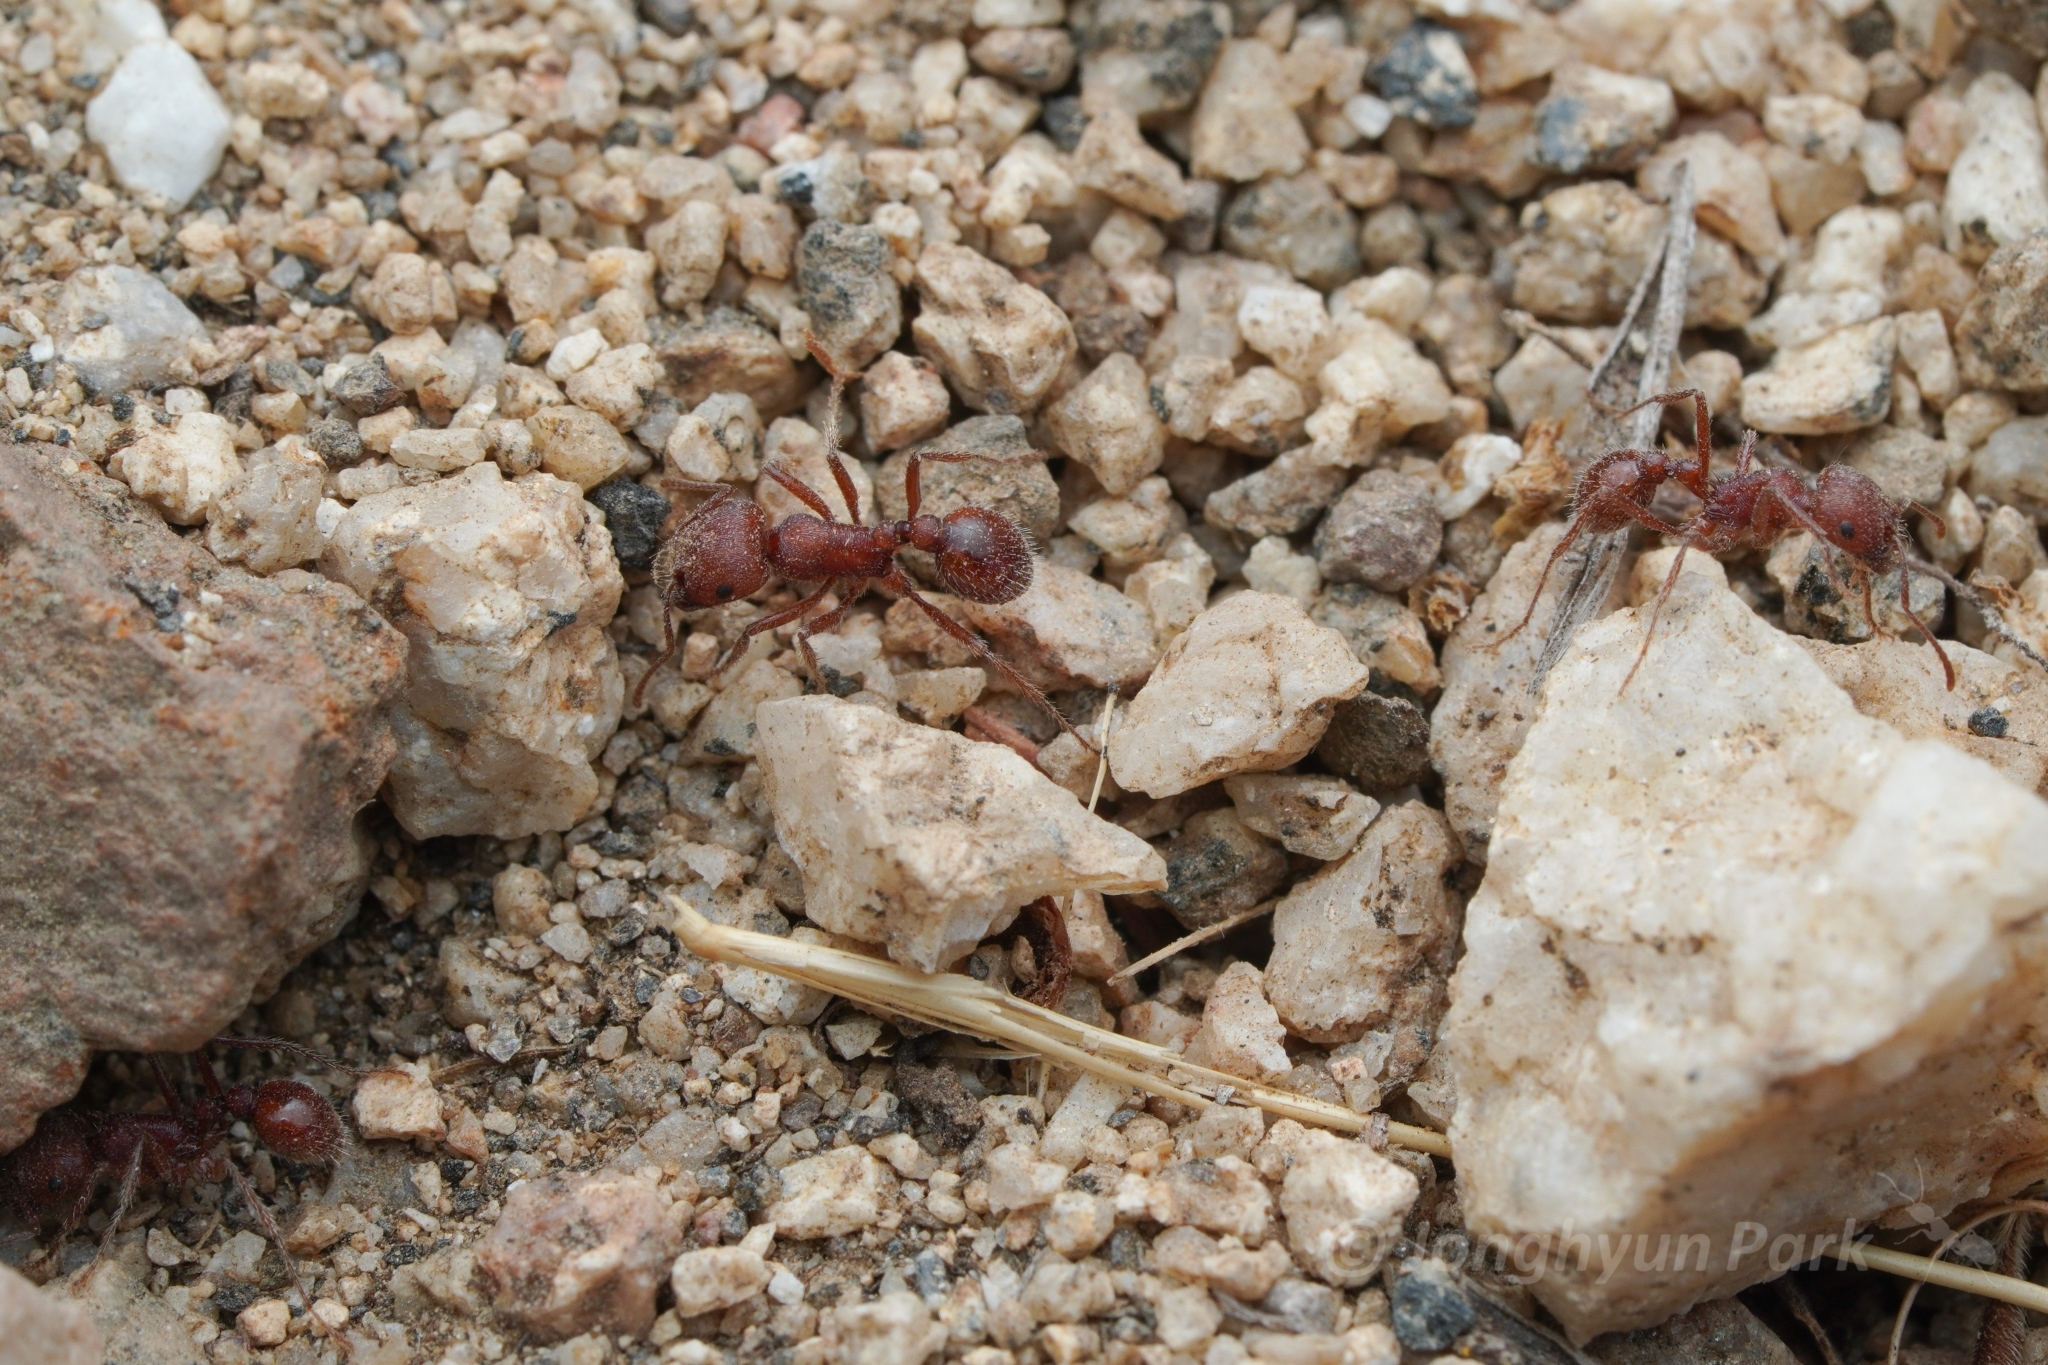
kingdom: Animalia
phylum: Arthropoda
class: Insecta
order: Hymenoptera
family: Formicidae
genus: Pogonomyrmex
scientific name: Pogonomyrmex subnitidus
